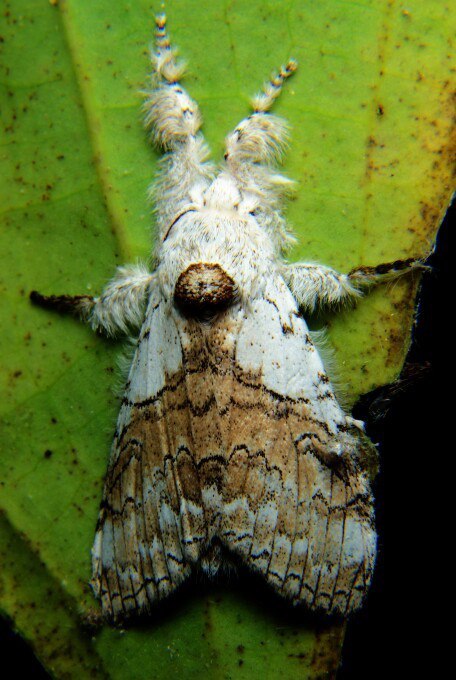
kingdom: Animalia
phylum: Arthropoda
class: Insecta
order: Lepidoptera
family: Erebidae
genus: Calliteara
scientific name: Calliteara grotei
